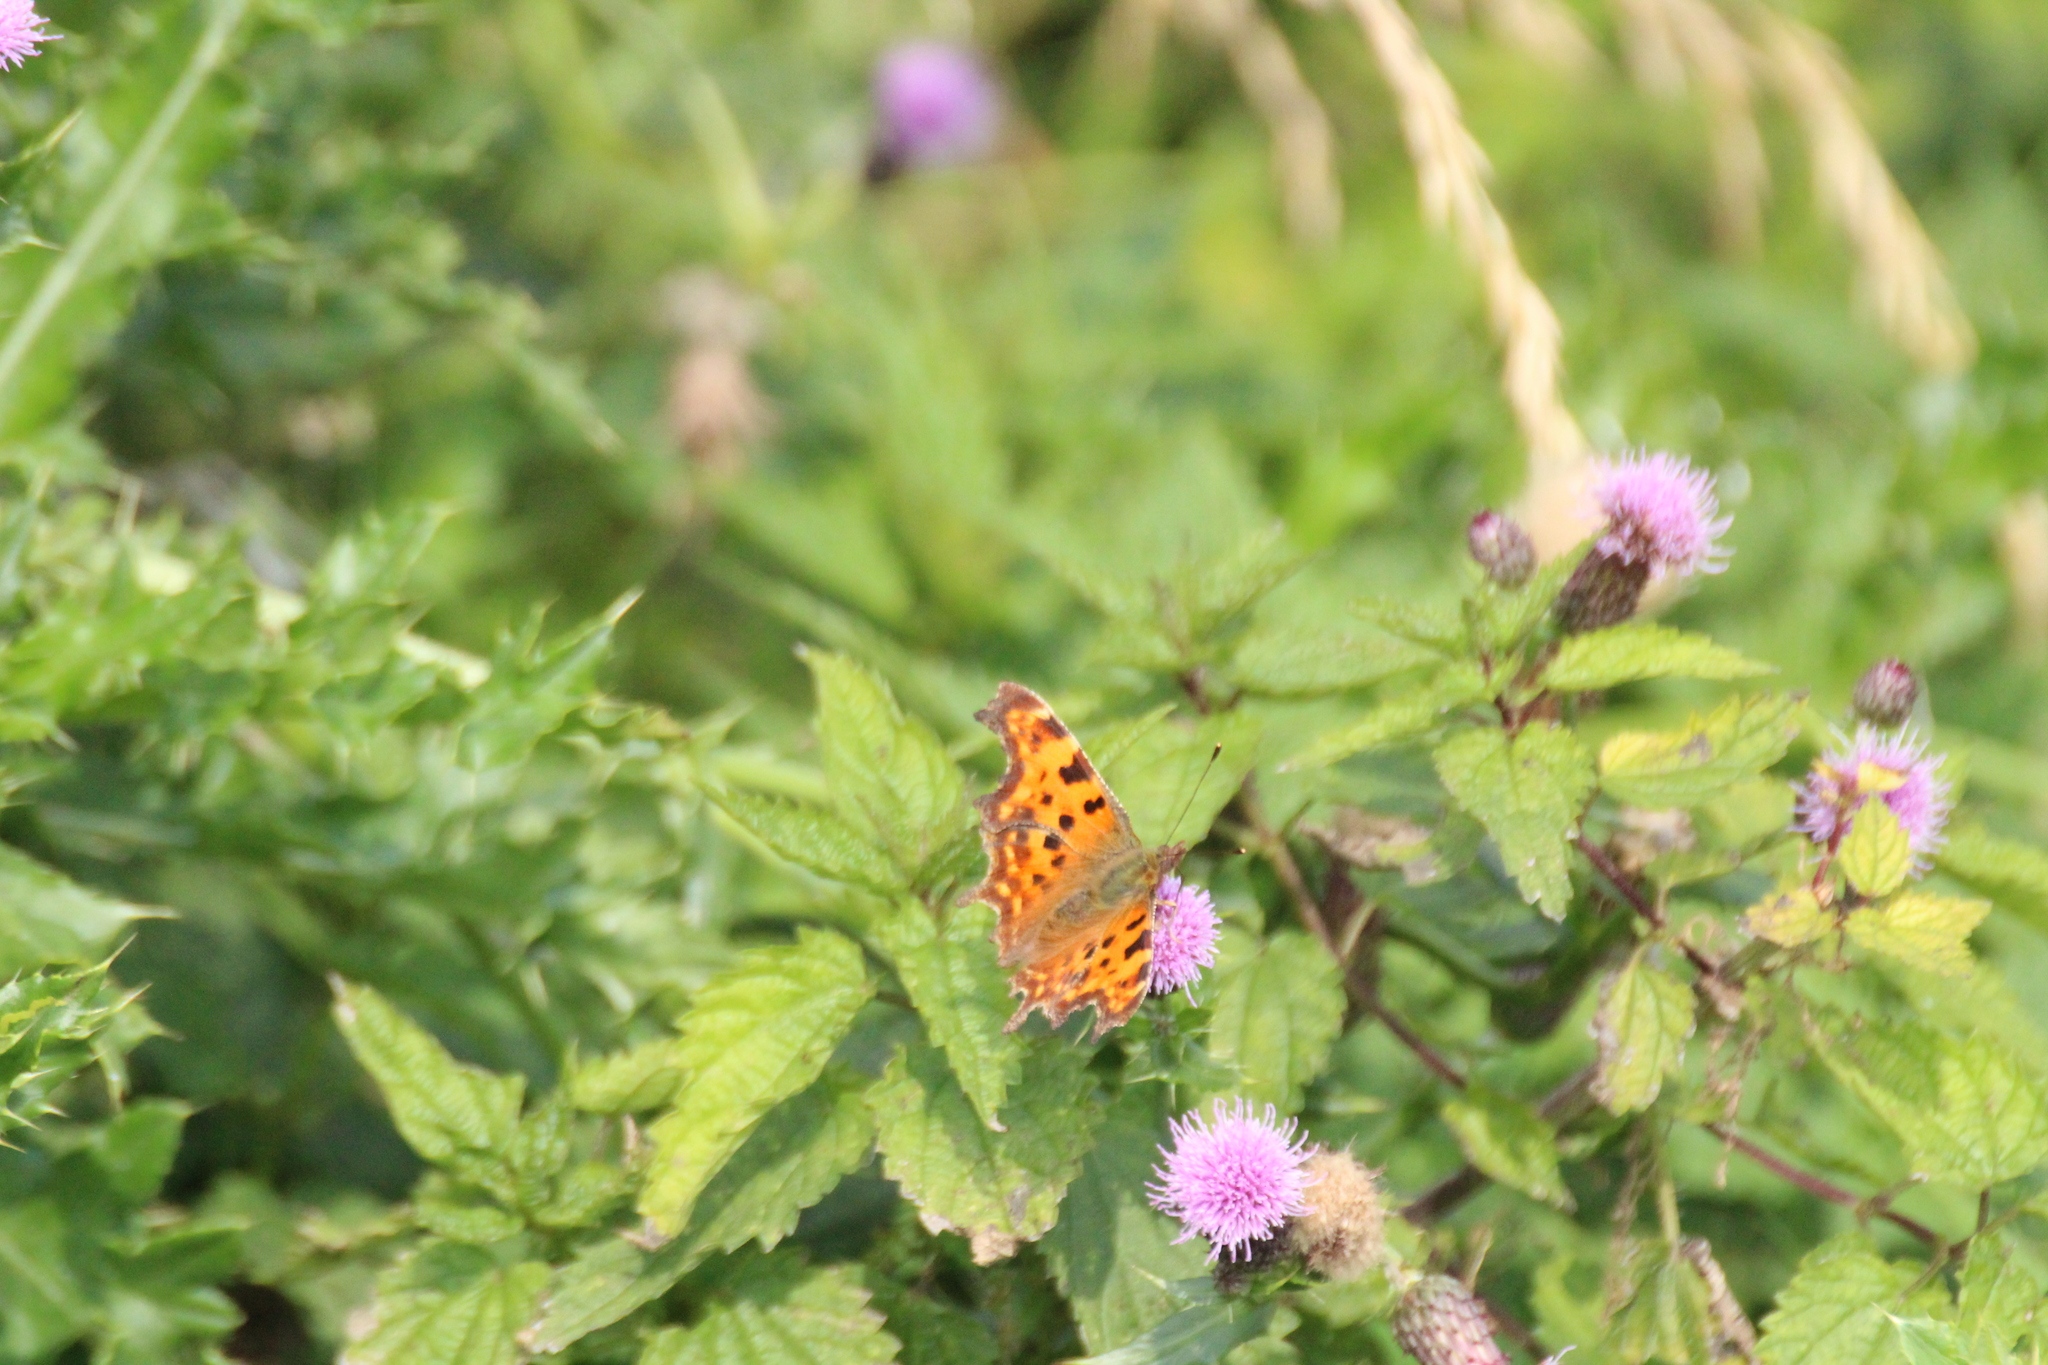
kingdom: Animalia
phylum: Arthropoda
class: Insecta
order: Lepidoptera
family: Nymphalidae
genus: Polygonia
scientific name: Polygonia c-album
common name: Comma
